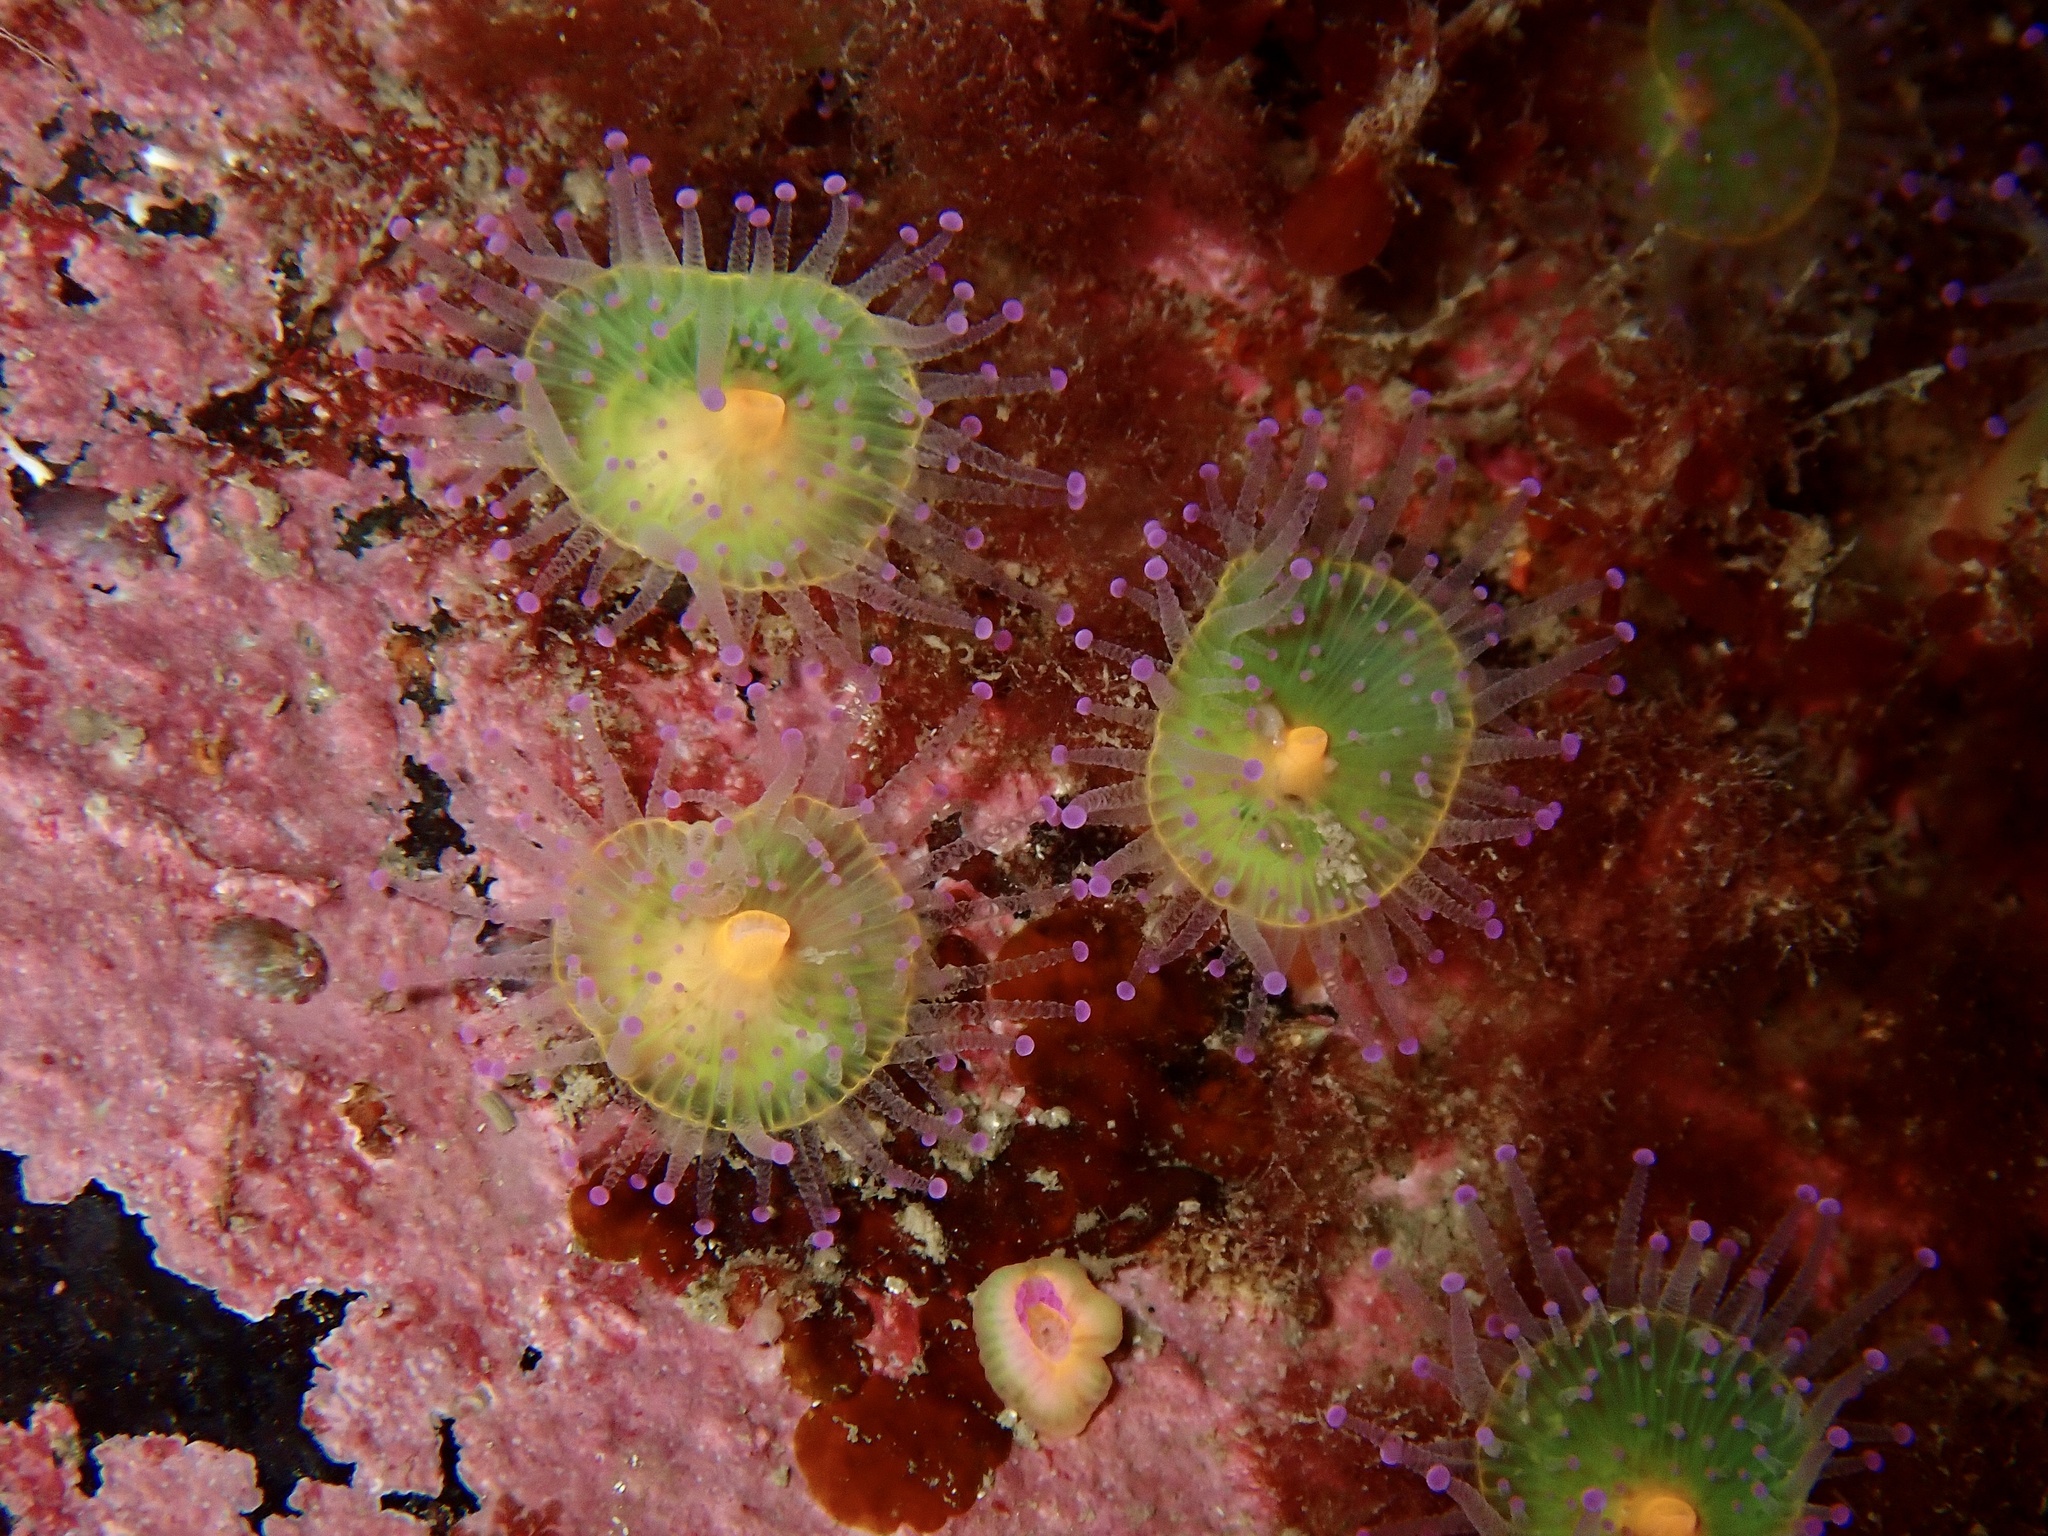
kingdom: Animalia
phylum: Cnidaria
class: Anthozoa
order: Corallimorpharia
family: Corallimorphidae
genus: Corynactis
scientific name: Corynactis viridis
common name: Jewel anemone
